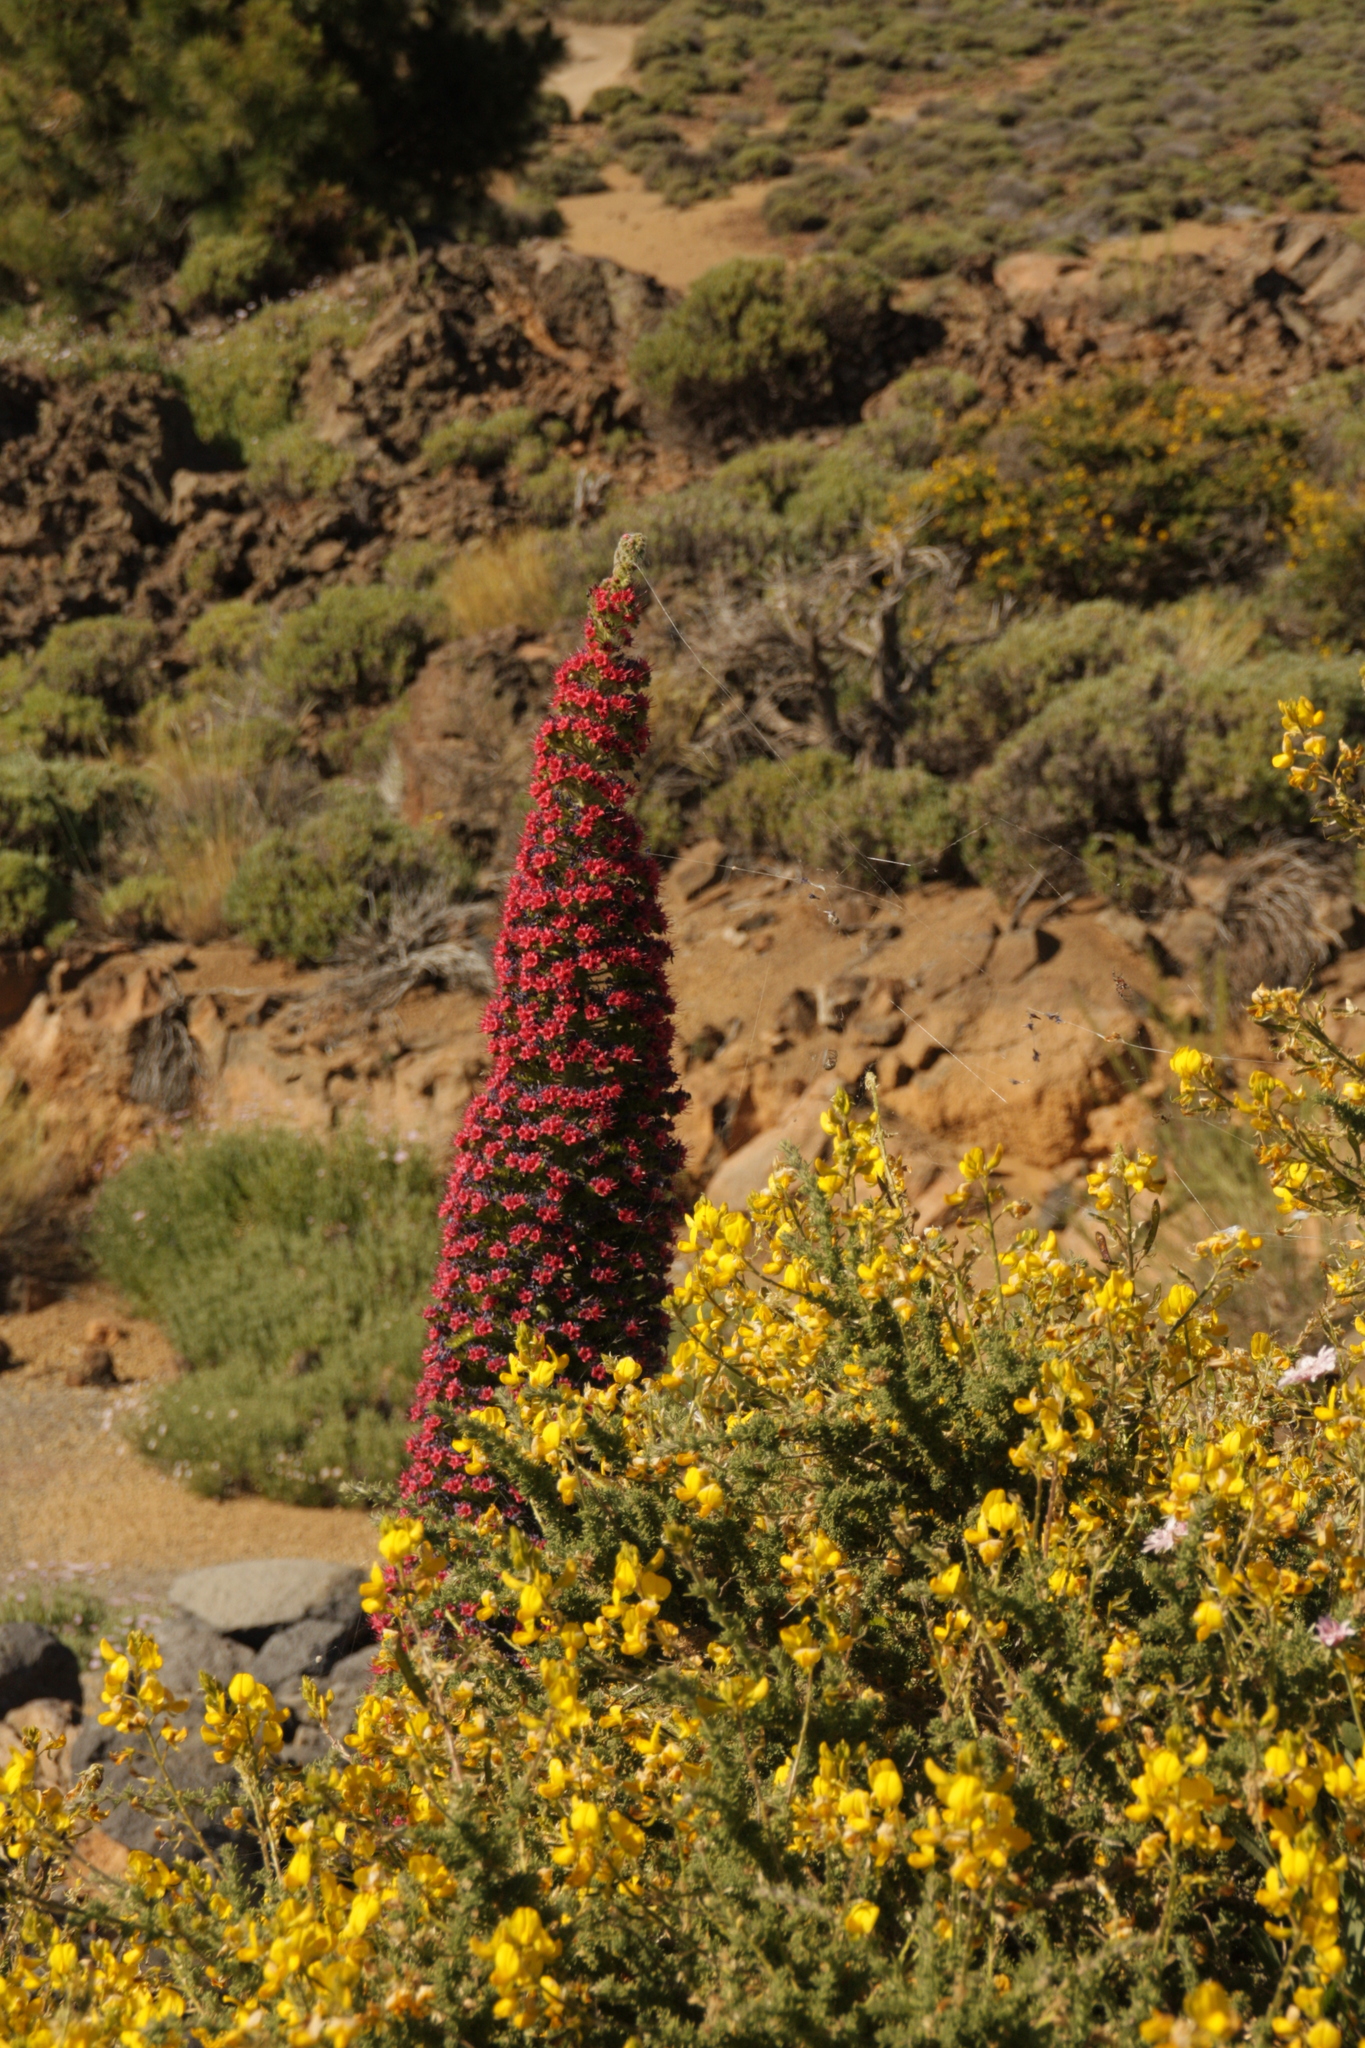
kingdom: Plantae
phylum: Tracheophyta
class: Magnoliopsida
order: Boraginales
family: Boraginaceae
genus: Echium
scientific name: Echium wildpretii
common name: Tower-of-jewels
